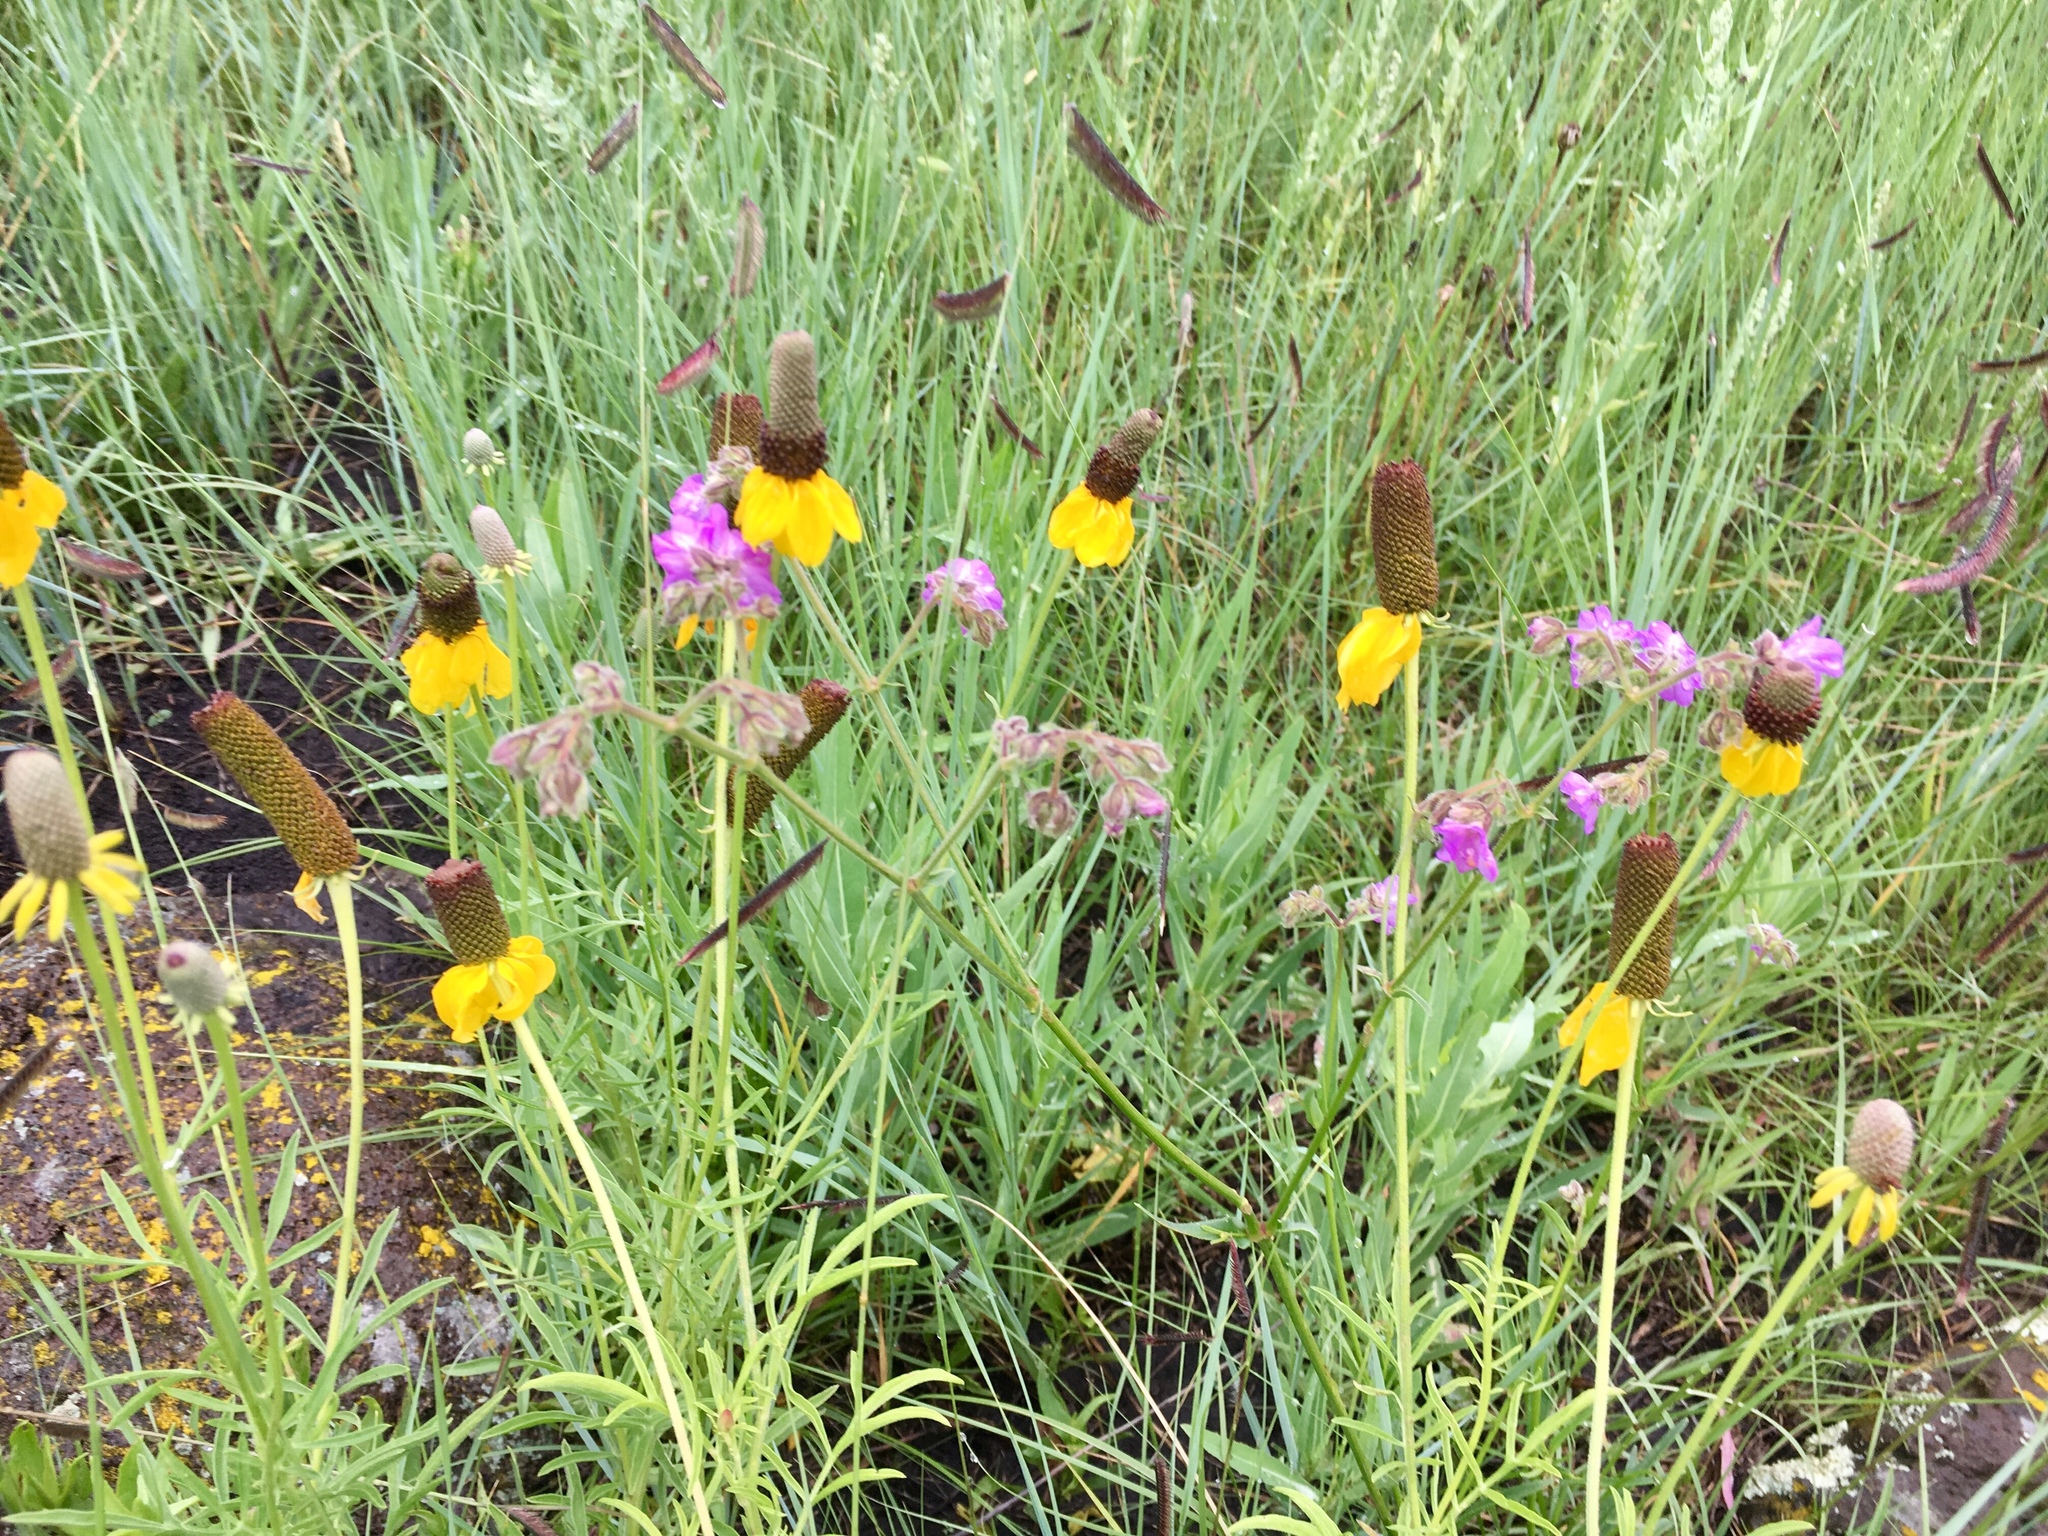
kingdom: Plantae
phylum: Tracheophyta
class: Magnoliopsida
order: Asterales
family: Asteraceae
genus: Ratibida
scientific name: Ratibida columnifera
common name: Prairie coneflower
